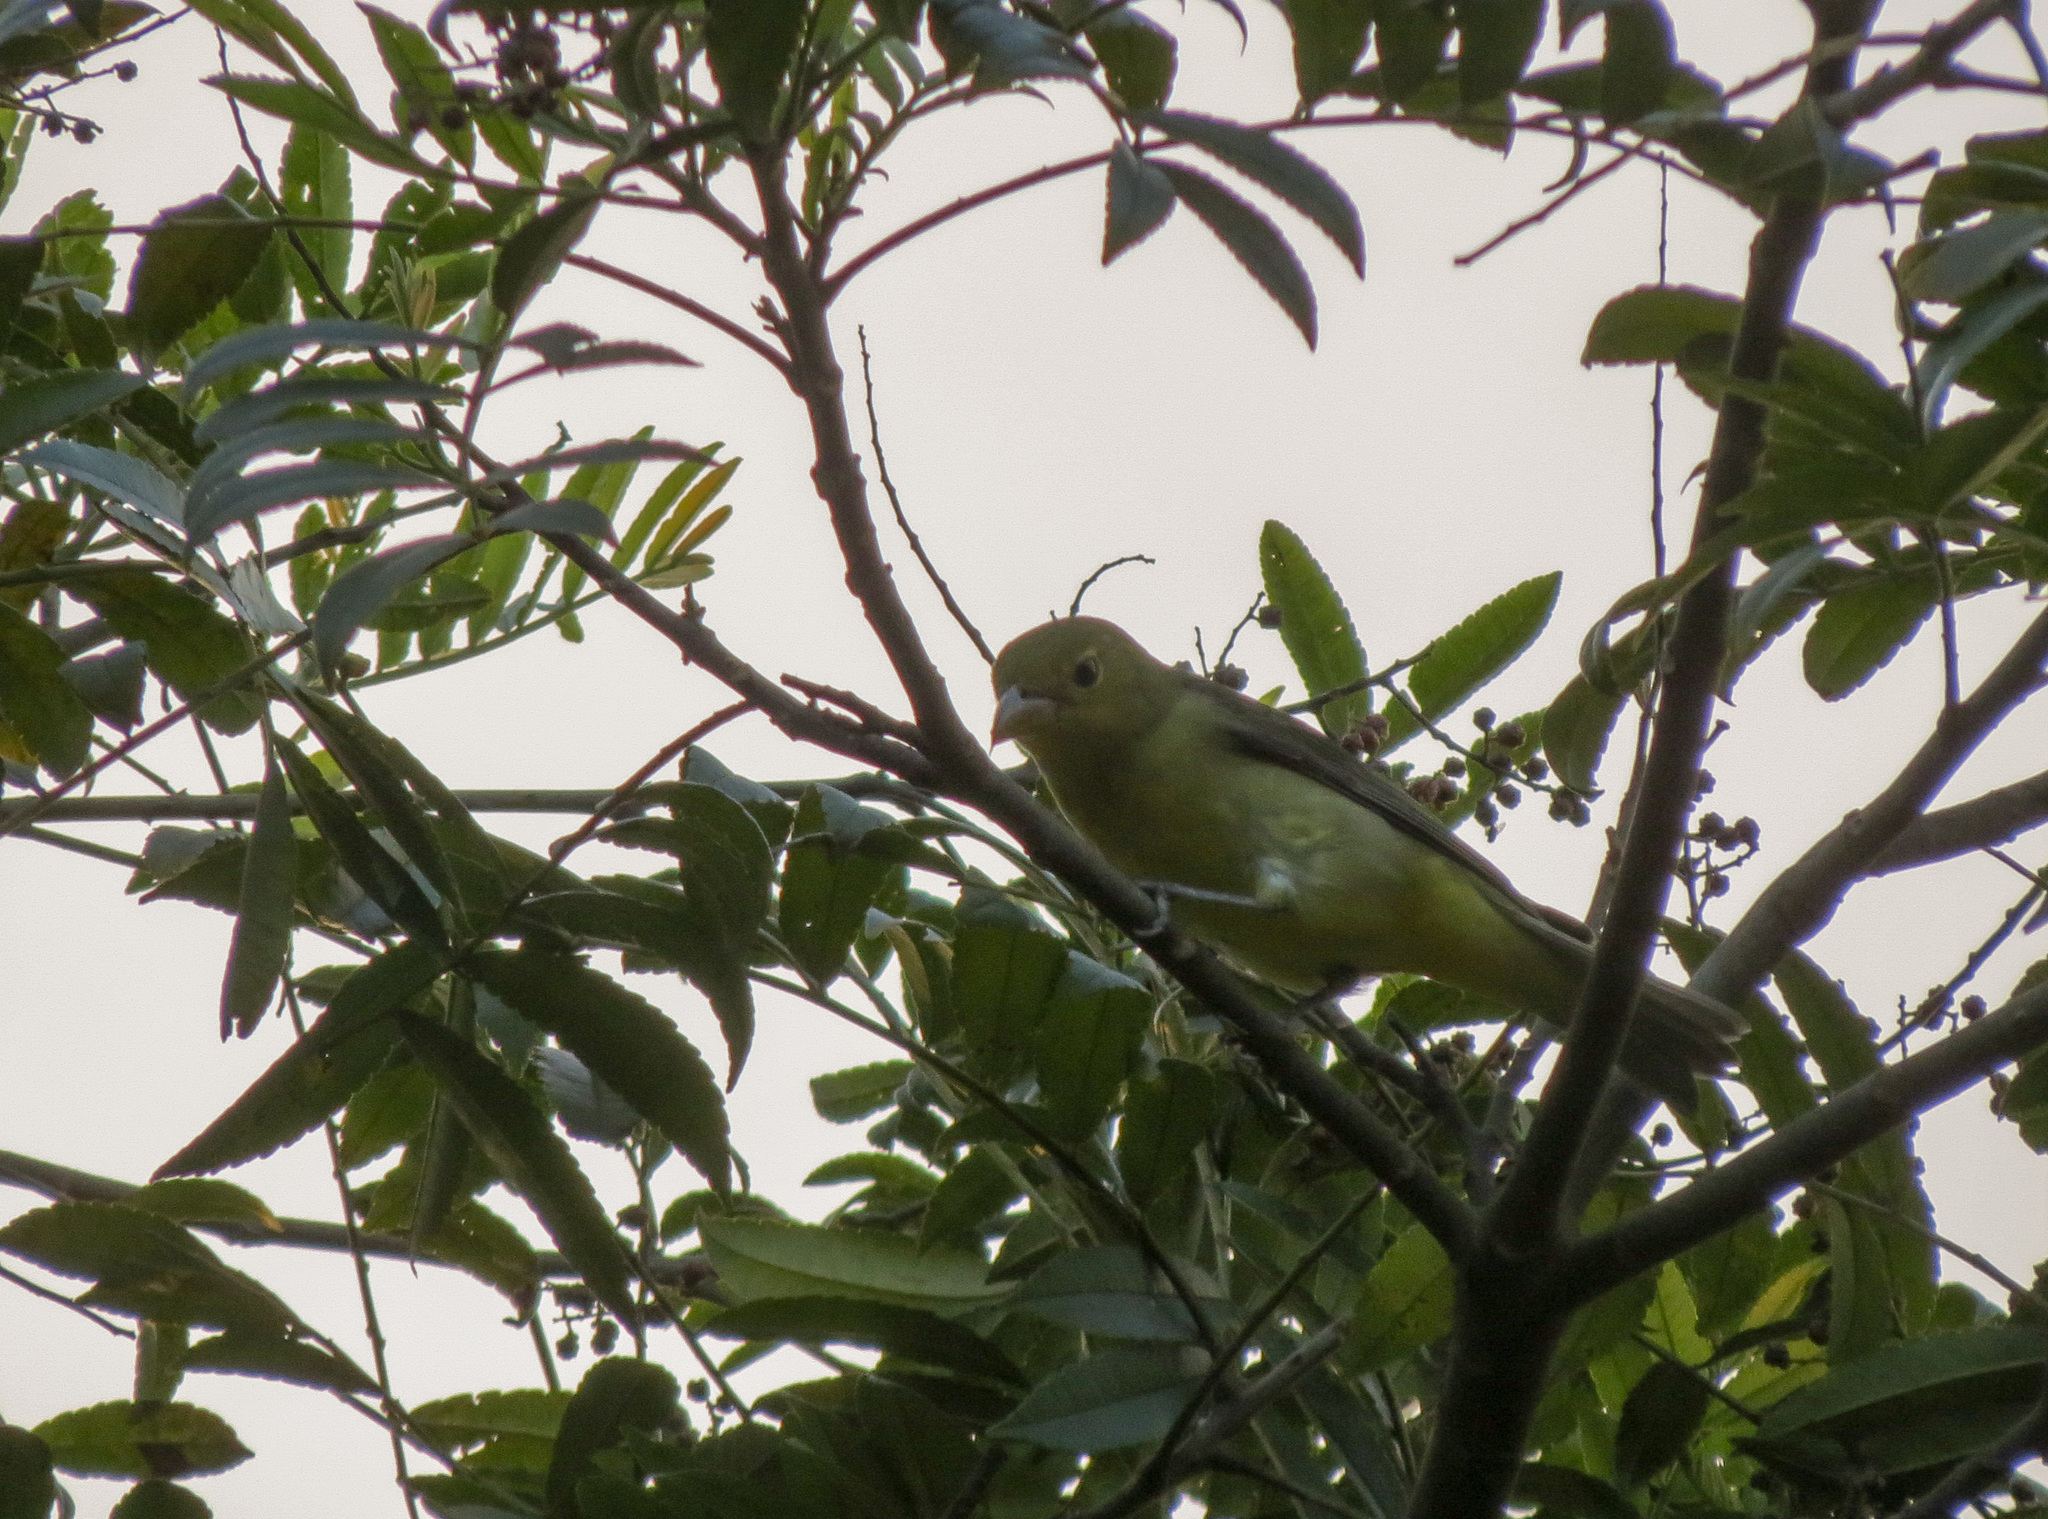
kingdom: Animalia
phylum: Chordata
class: Aves
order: Passeriformes
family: Cardinalidae
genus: Piranga
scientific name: Piranga olivacea
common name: Scarlet tanager
